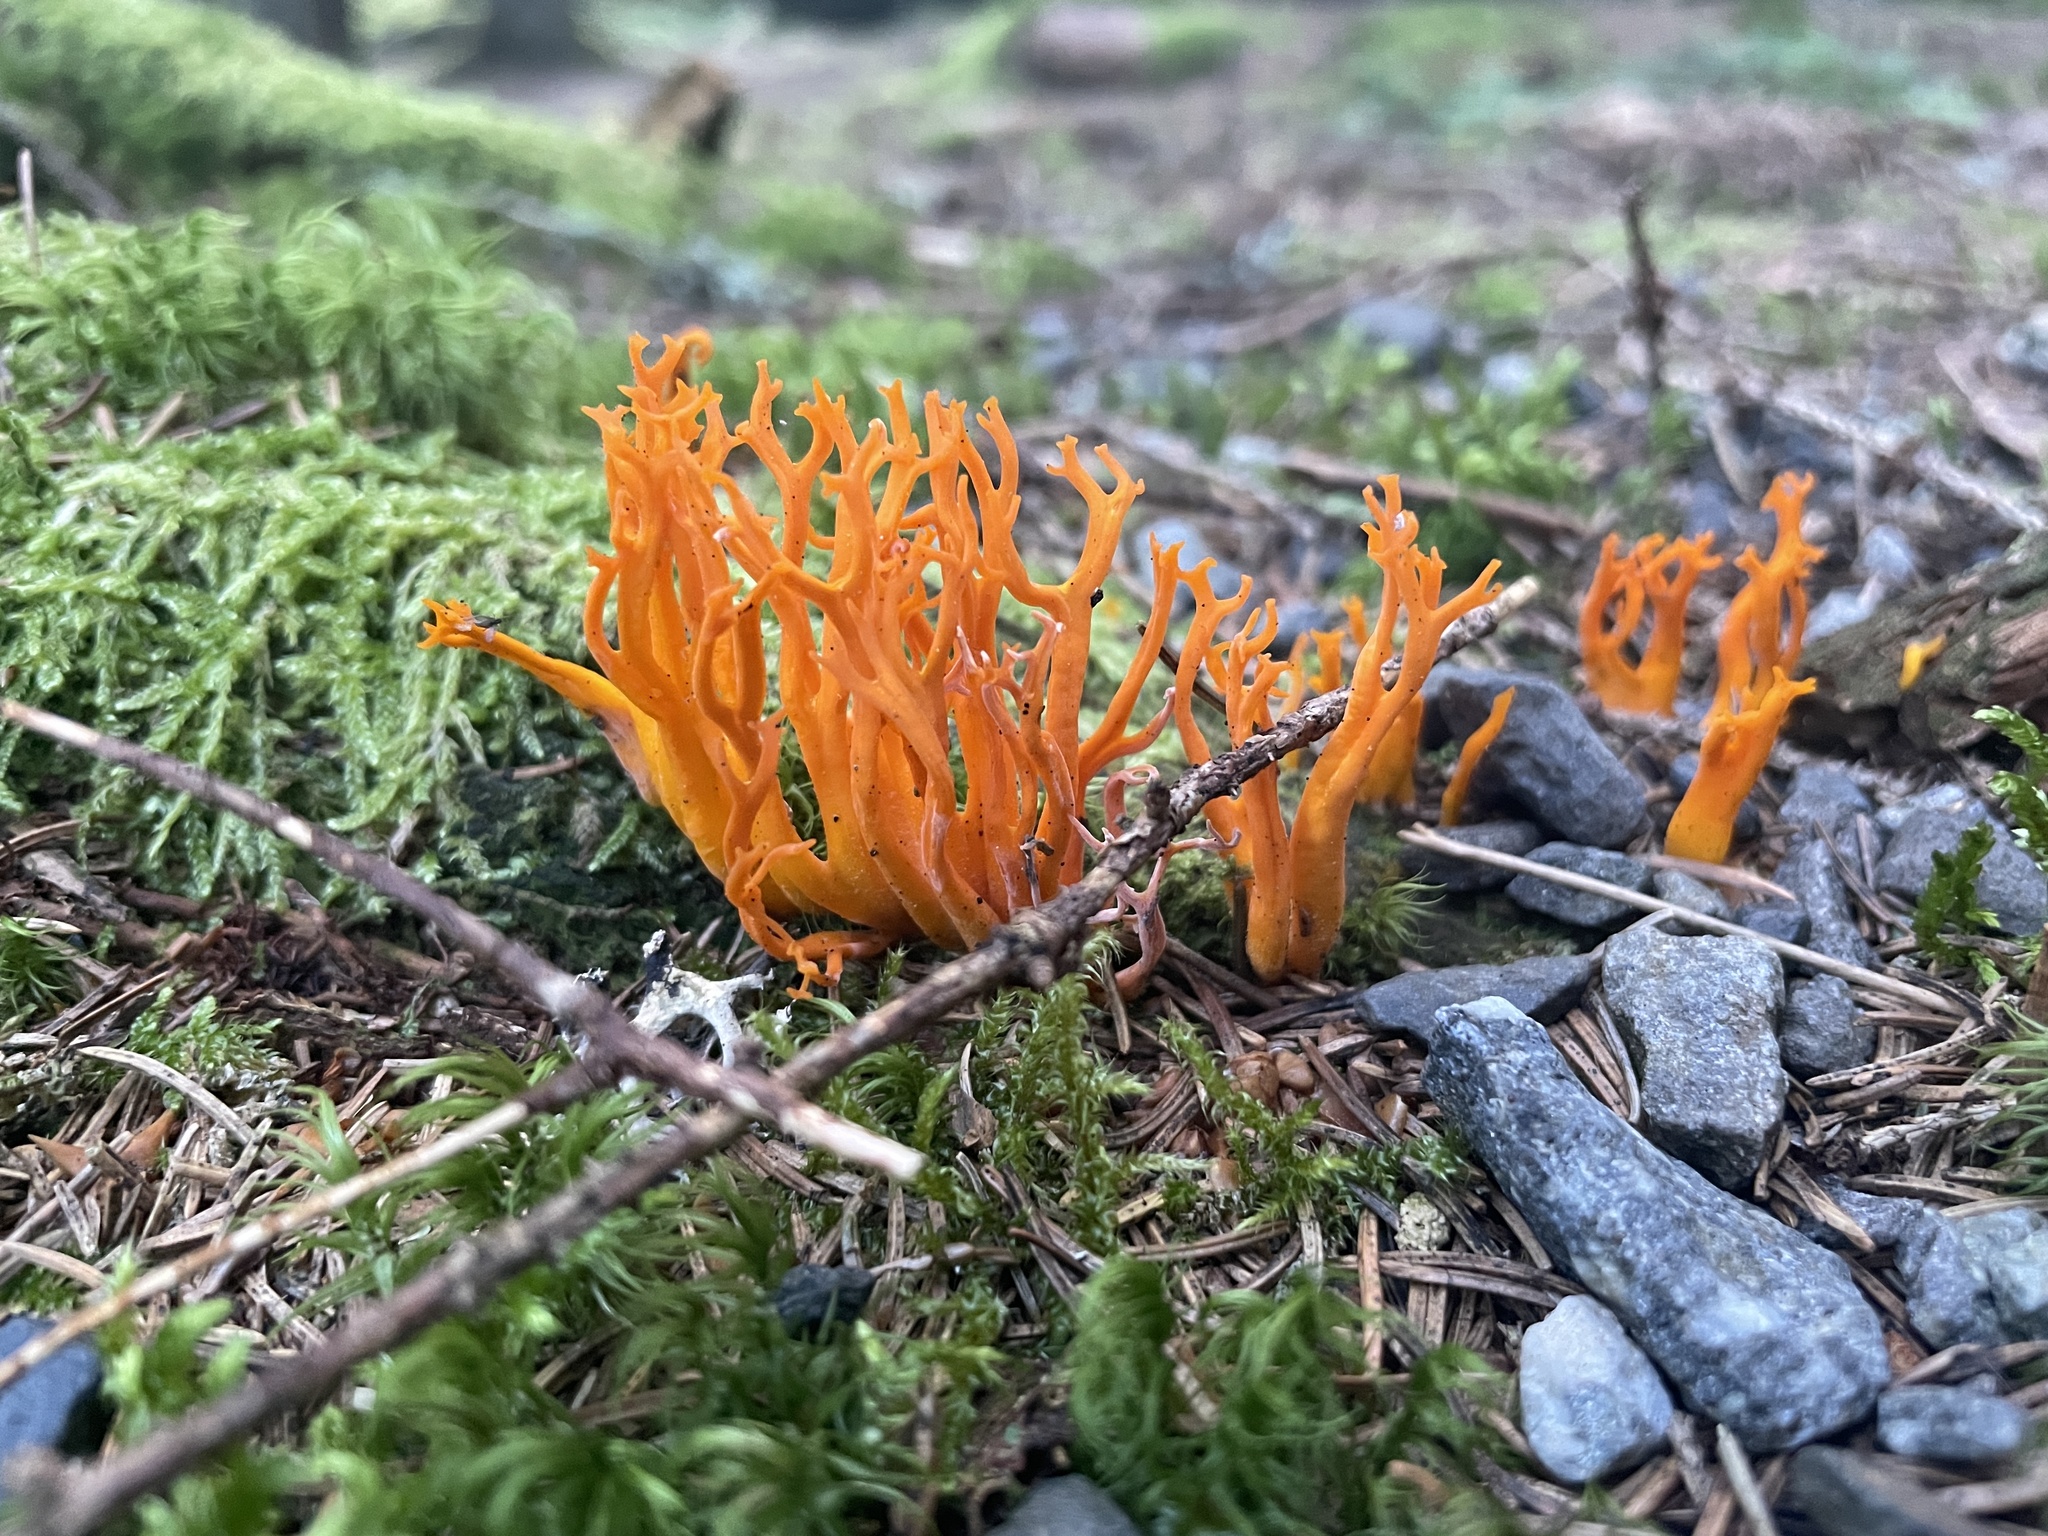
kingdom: Fungi
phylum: Basidiomycota
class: Dacrymycetes
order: Dacrymycetales
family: Dacrymycetaceae
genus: Calocera
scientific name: Calocera viscosa
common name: Yellow stagshorn
